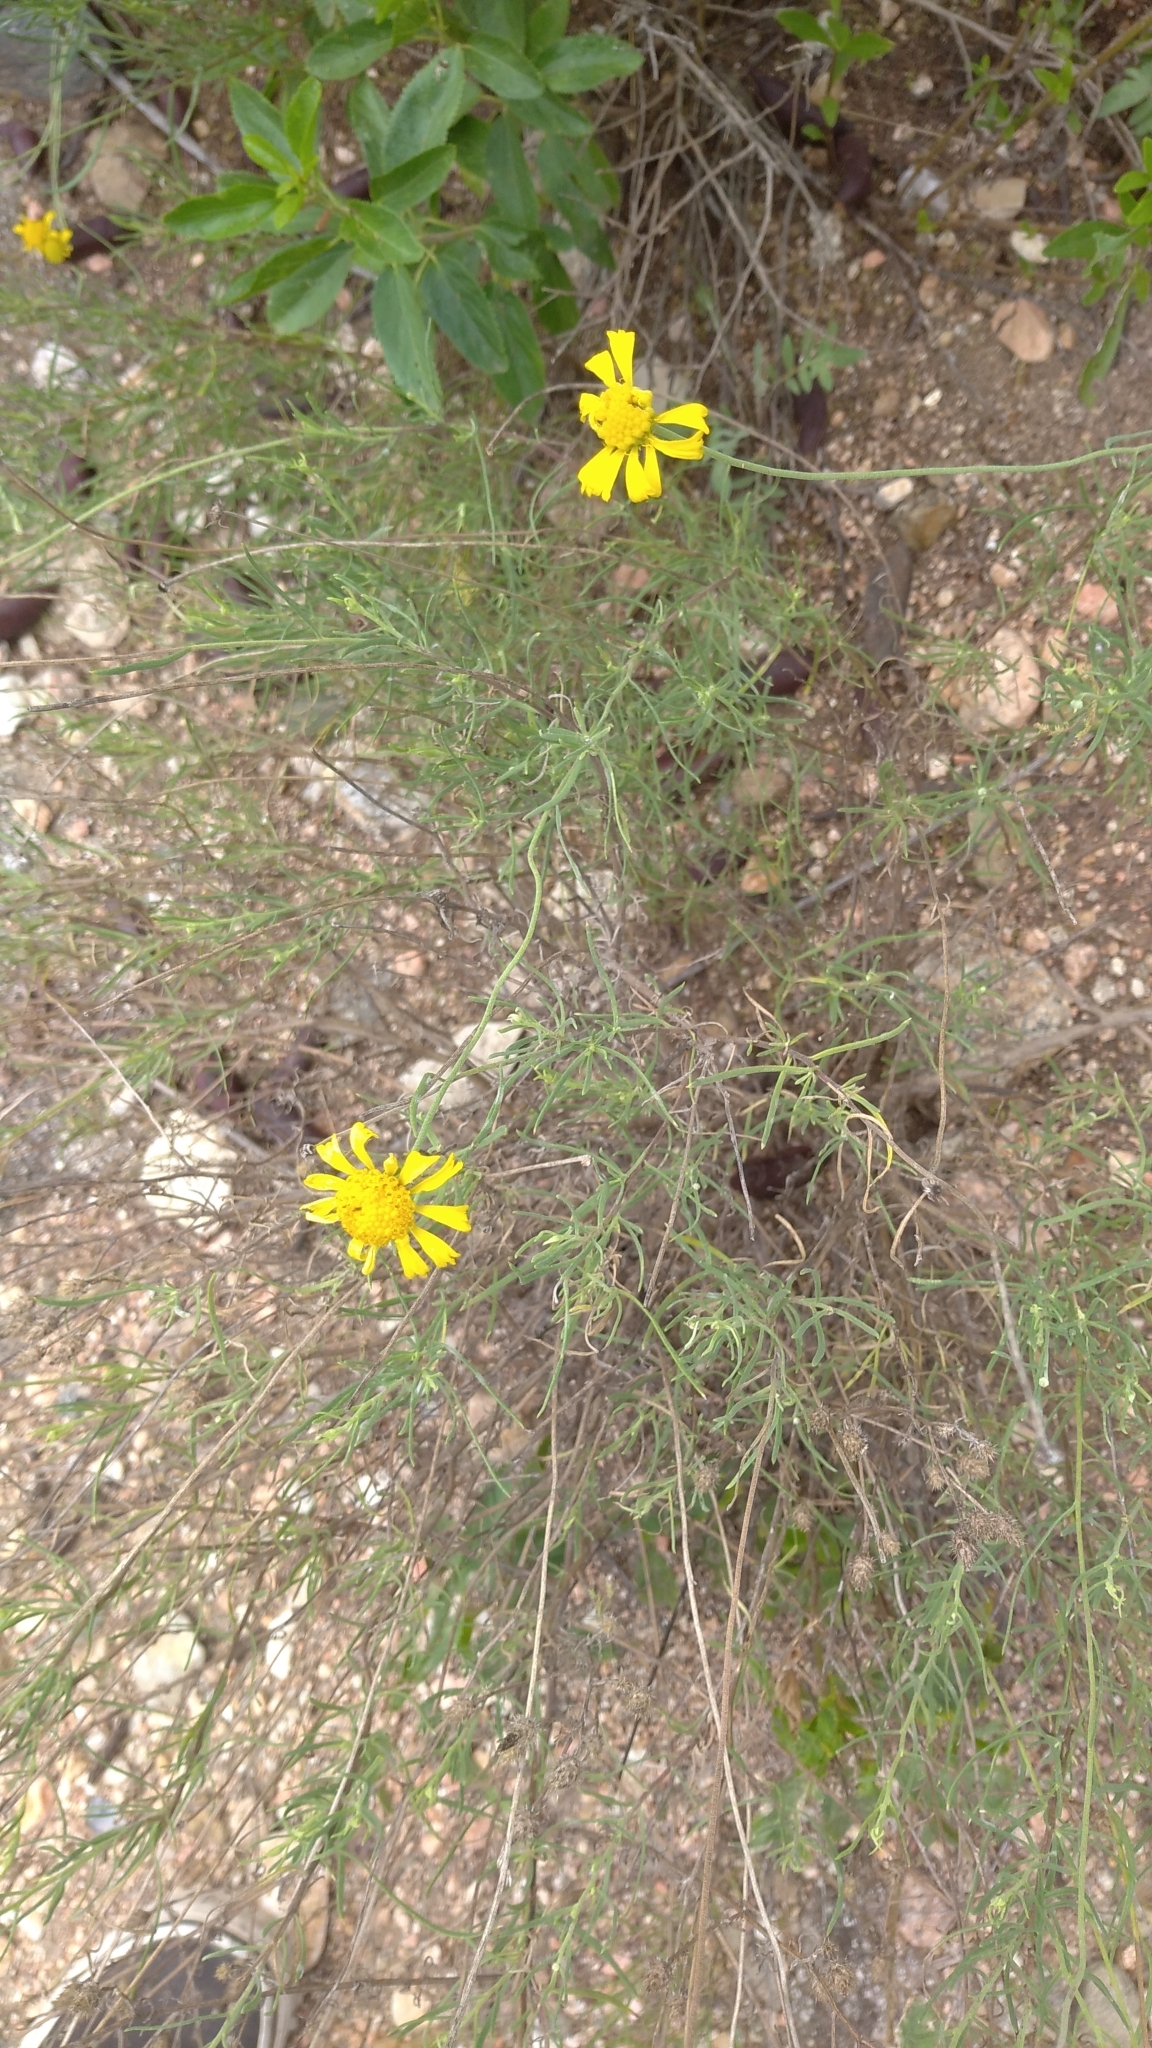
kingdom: Plantae
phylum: Tracheophyta
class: Magnoliopsida
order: Asterales
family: Asteraceae
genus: Gaillardia
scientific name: Gaillardia megapotamica
